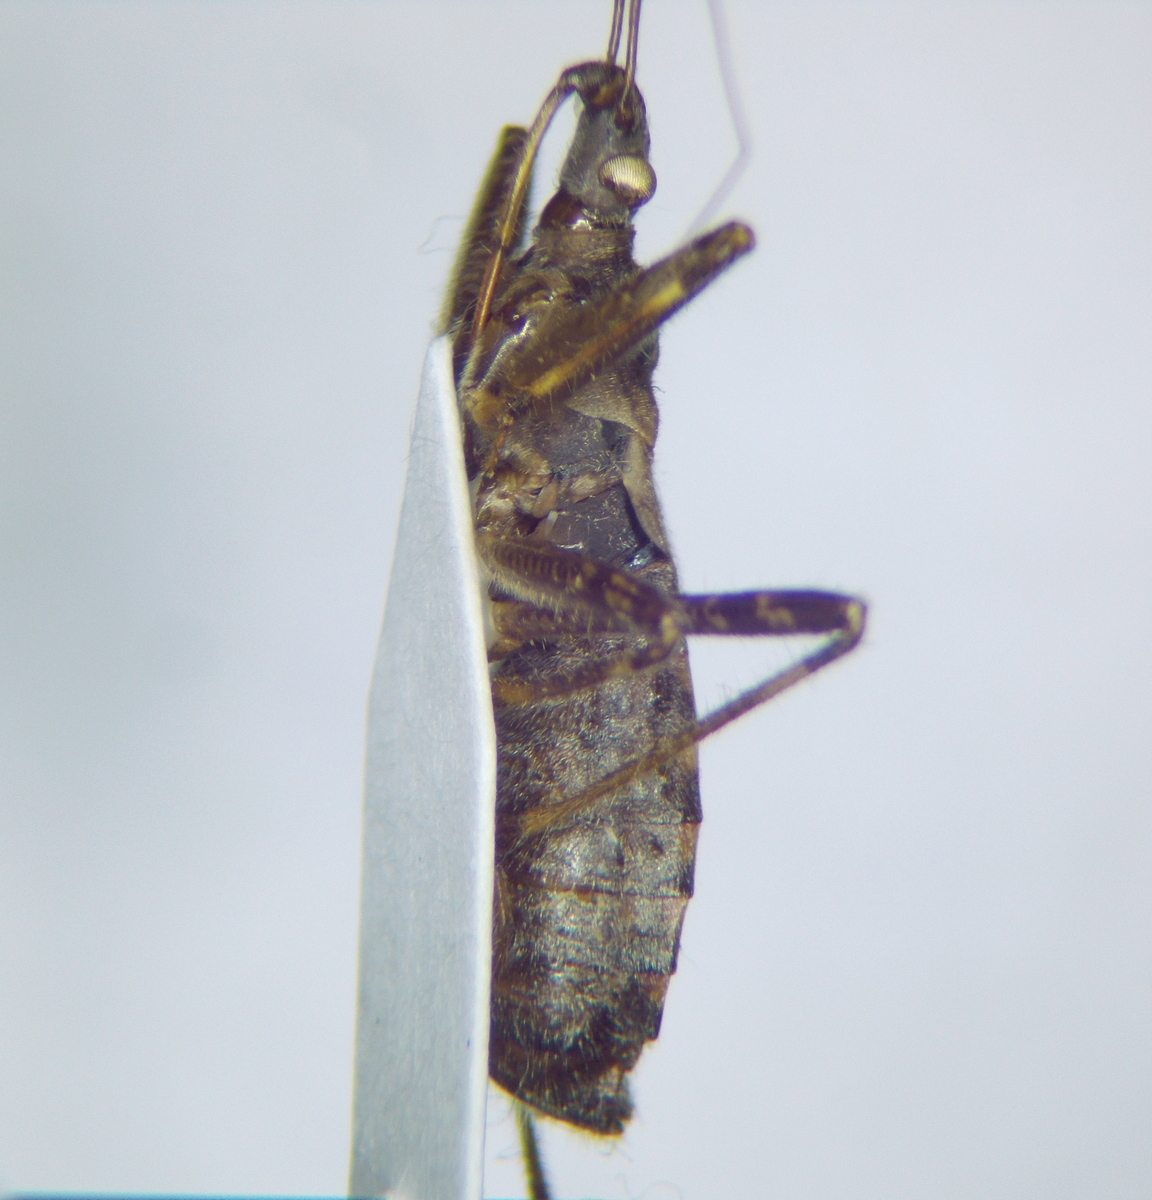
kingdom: Animalia
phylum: Arthropoda
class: Insecta
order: Hemiptera
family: Nabidae
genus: Himacerus
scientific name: Himacerus apterus
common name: Tree damsel bug
